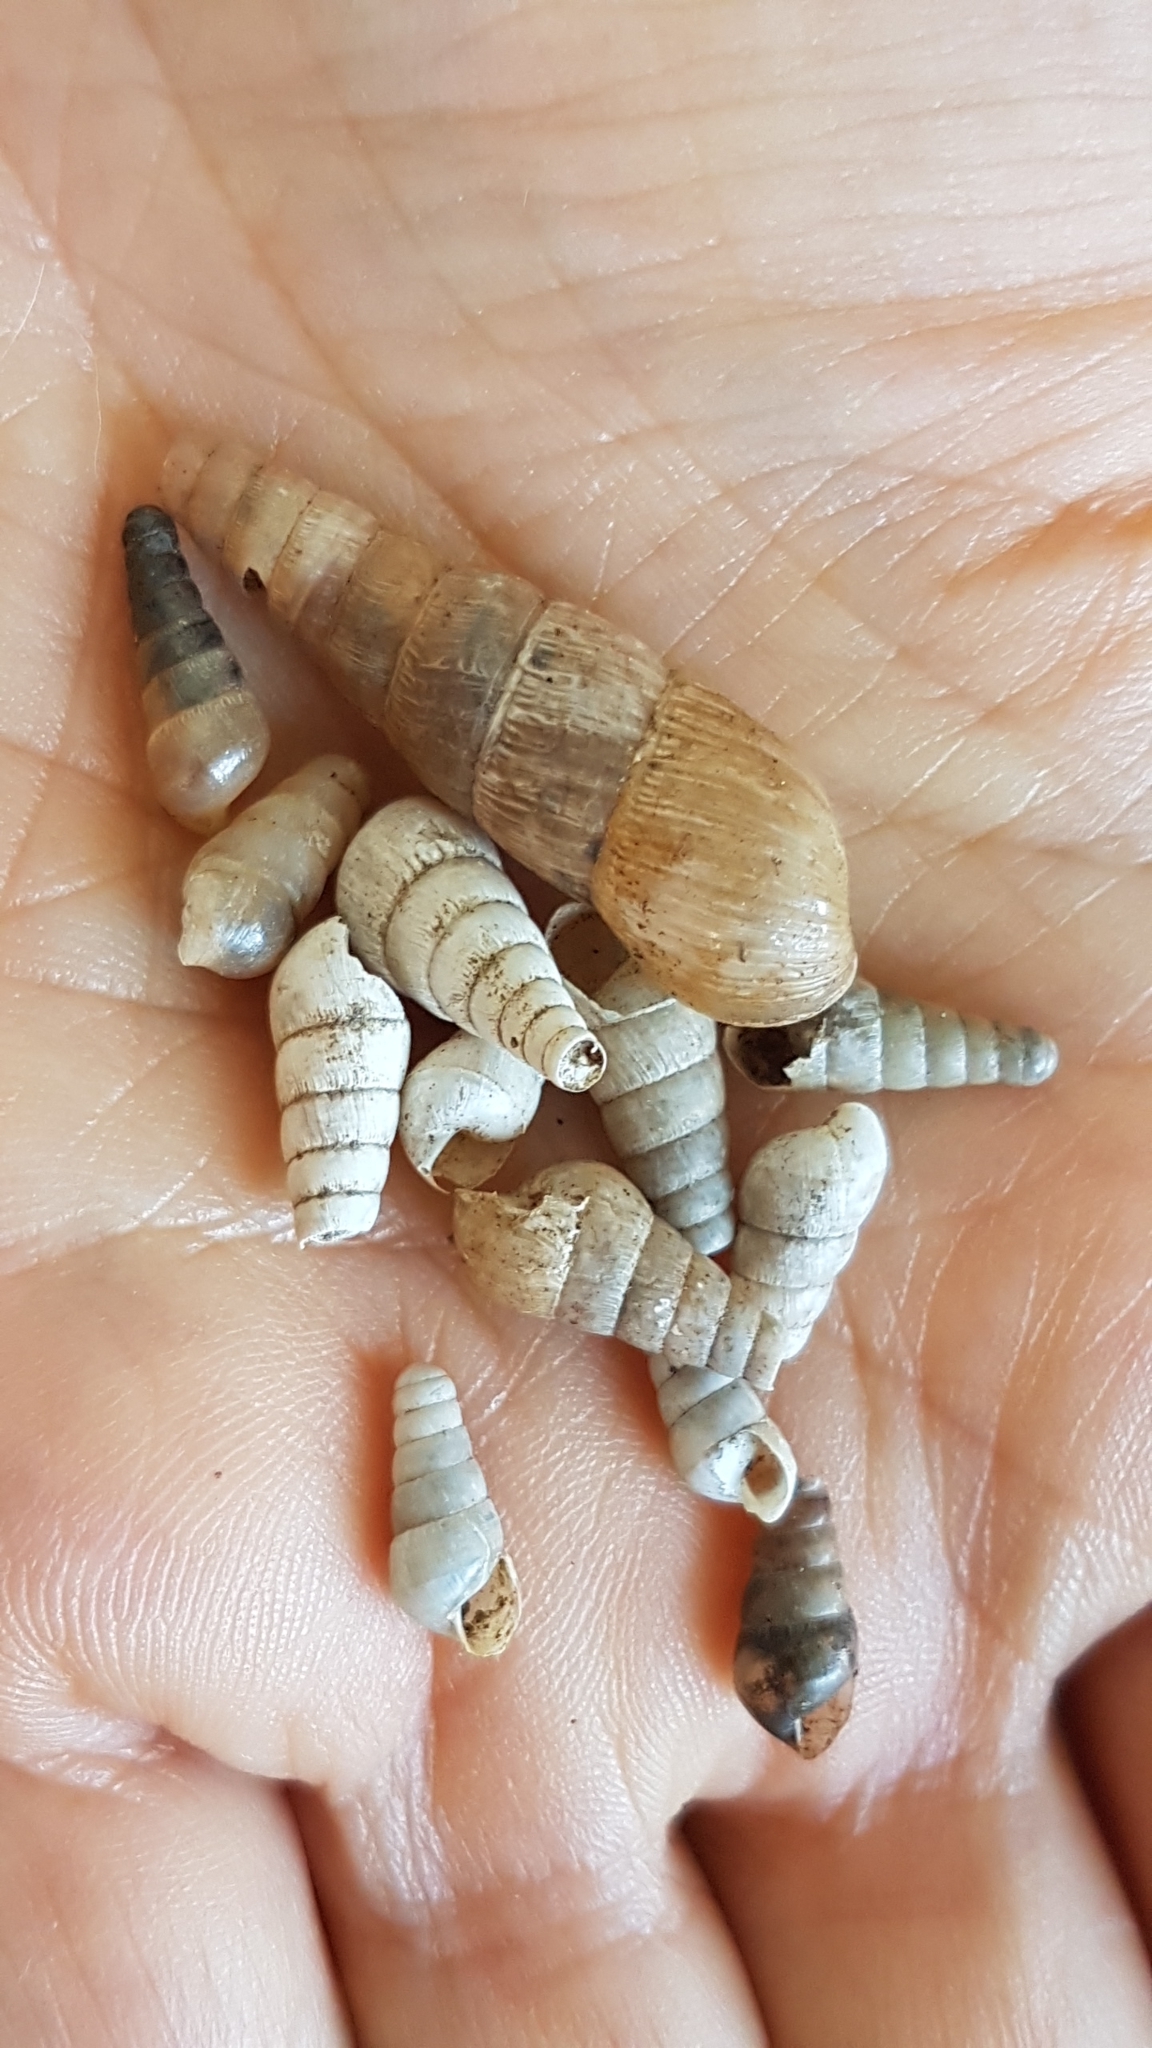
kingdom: Animalia
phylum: Mollusca
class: Gastropoda
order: Stylommatophora
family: Achatinidae
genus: Rumina
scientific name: Rumina decollata
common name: Decollate snail
